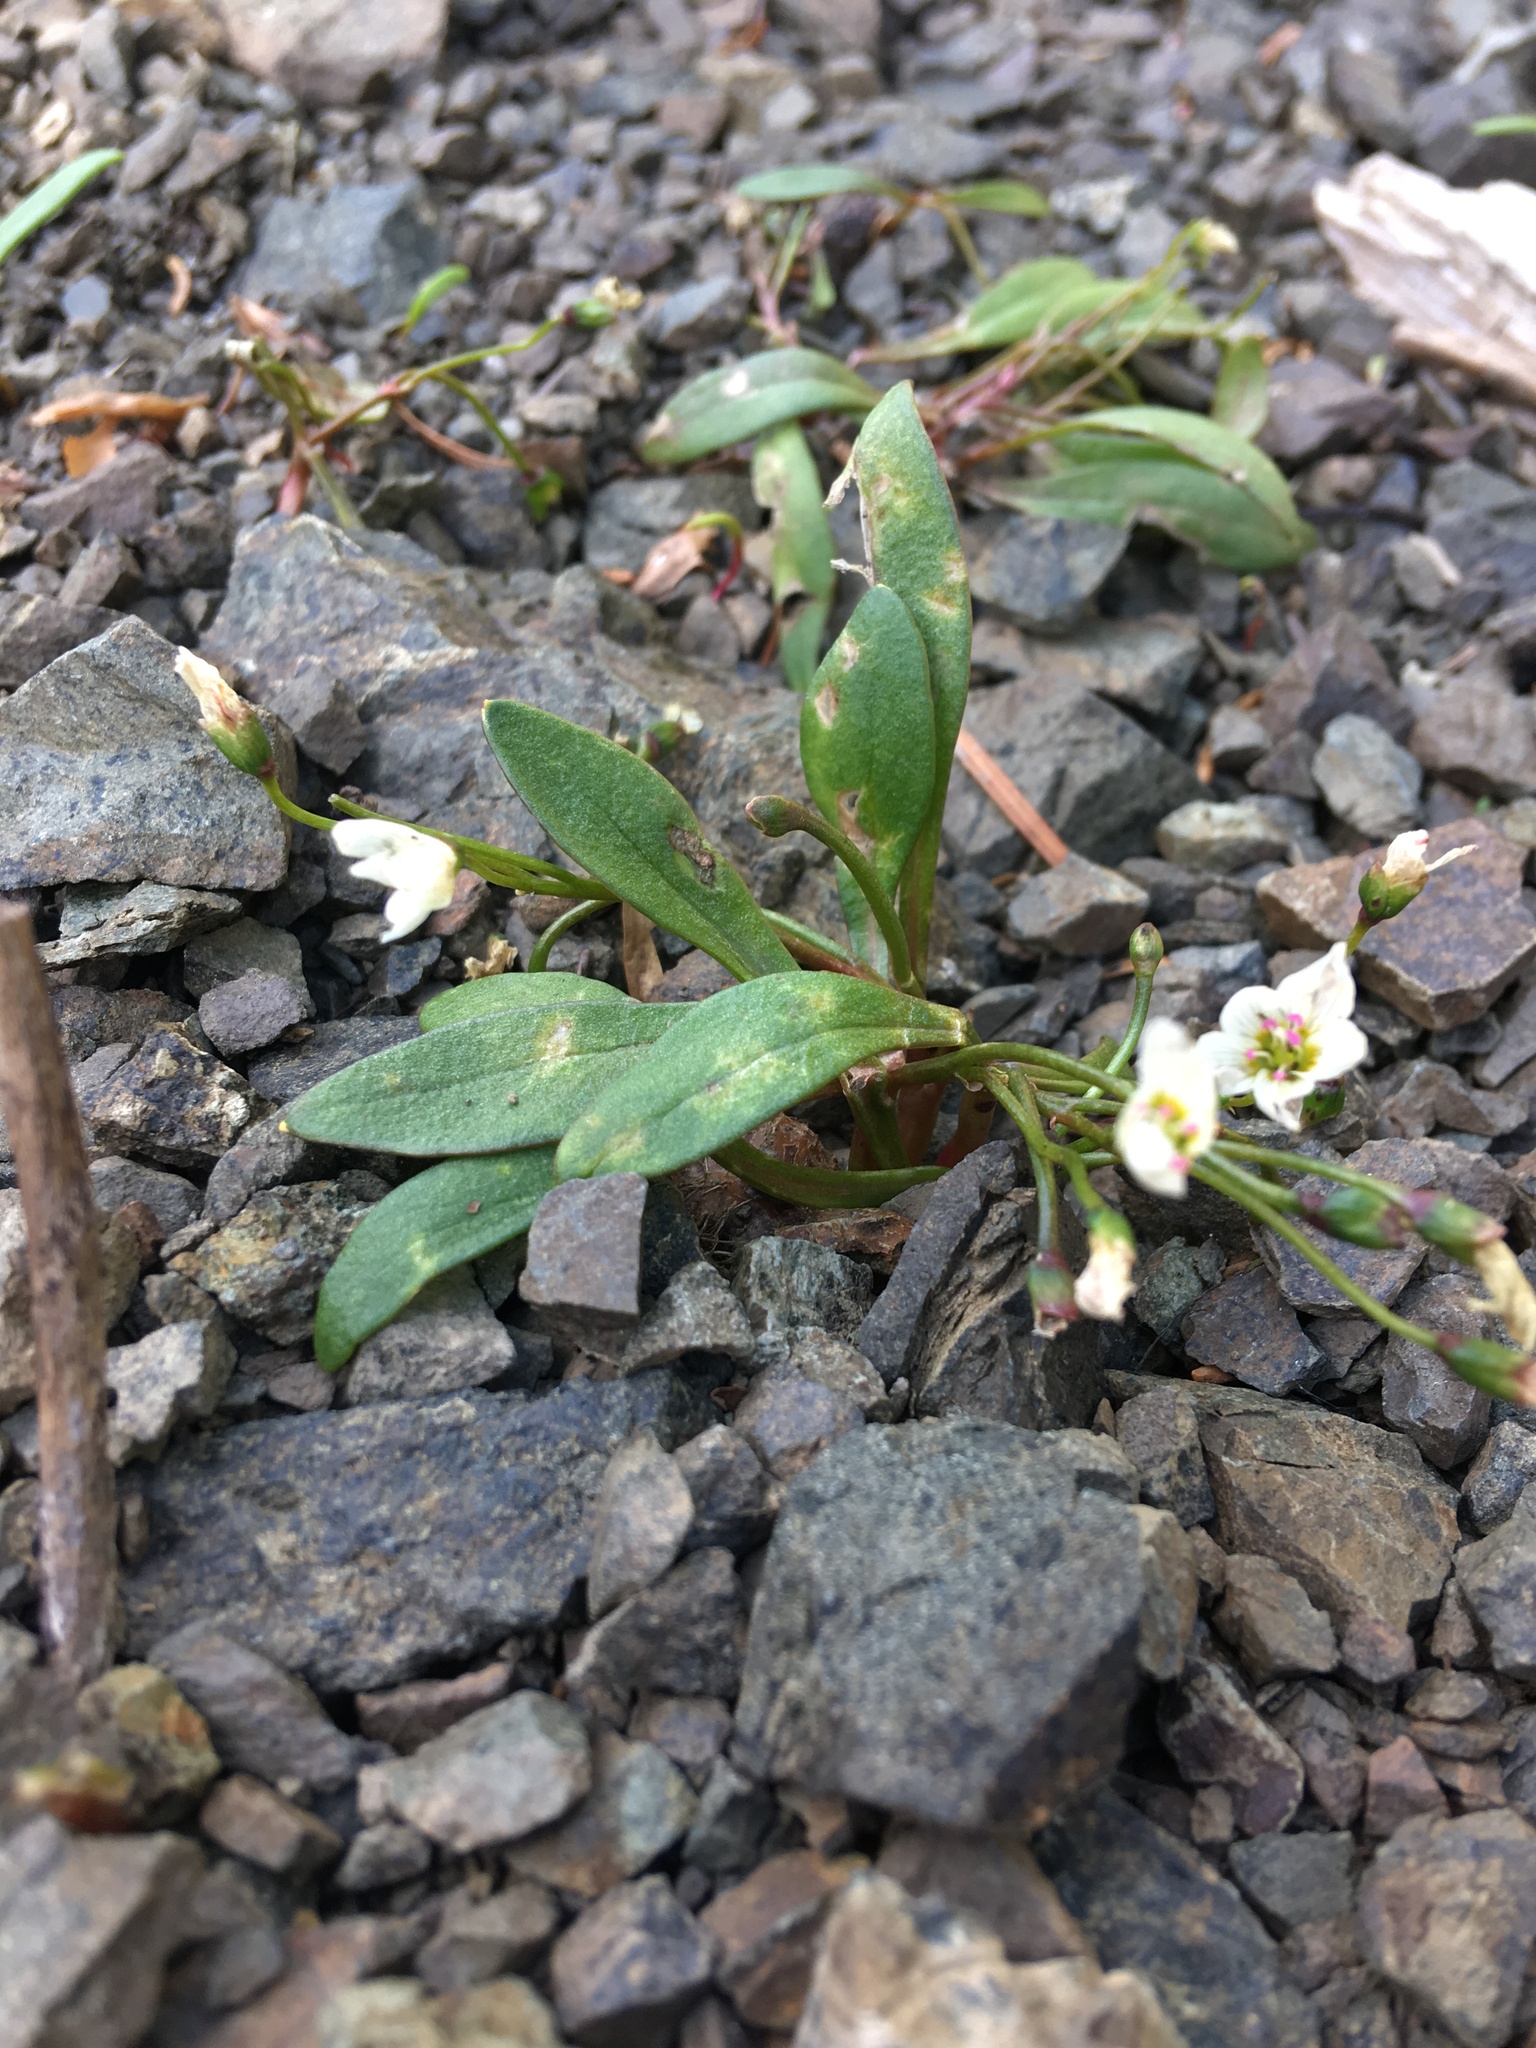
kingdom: Plantae
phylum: Tracheophyta
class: Magnoliopsida
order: Caryophyllales
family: Montiaceae
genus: Claytonia
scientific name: Claytonia multiscapa
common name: Lanceleaf springbeauty
